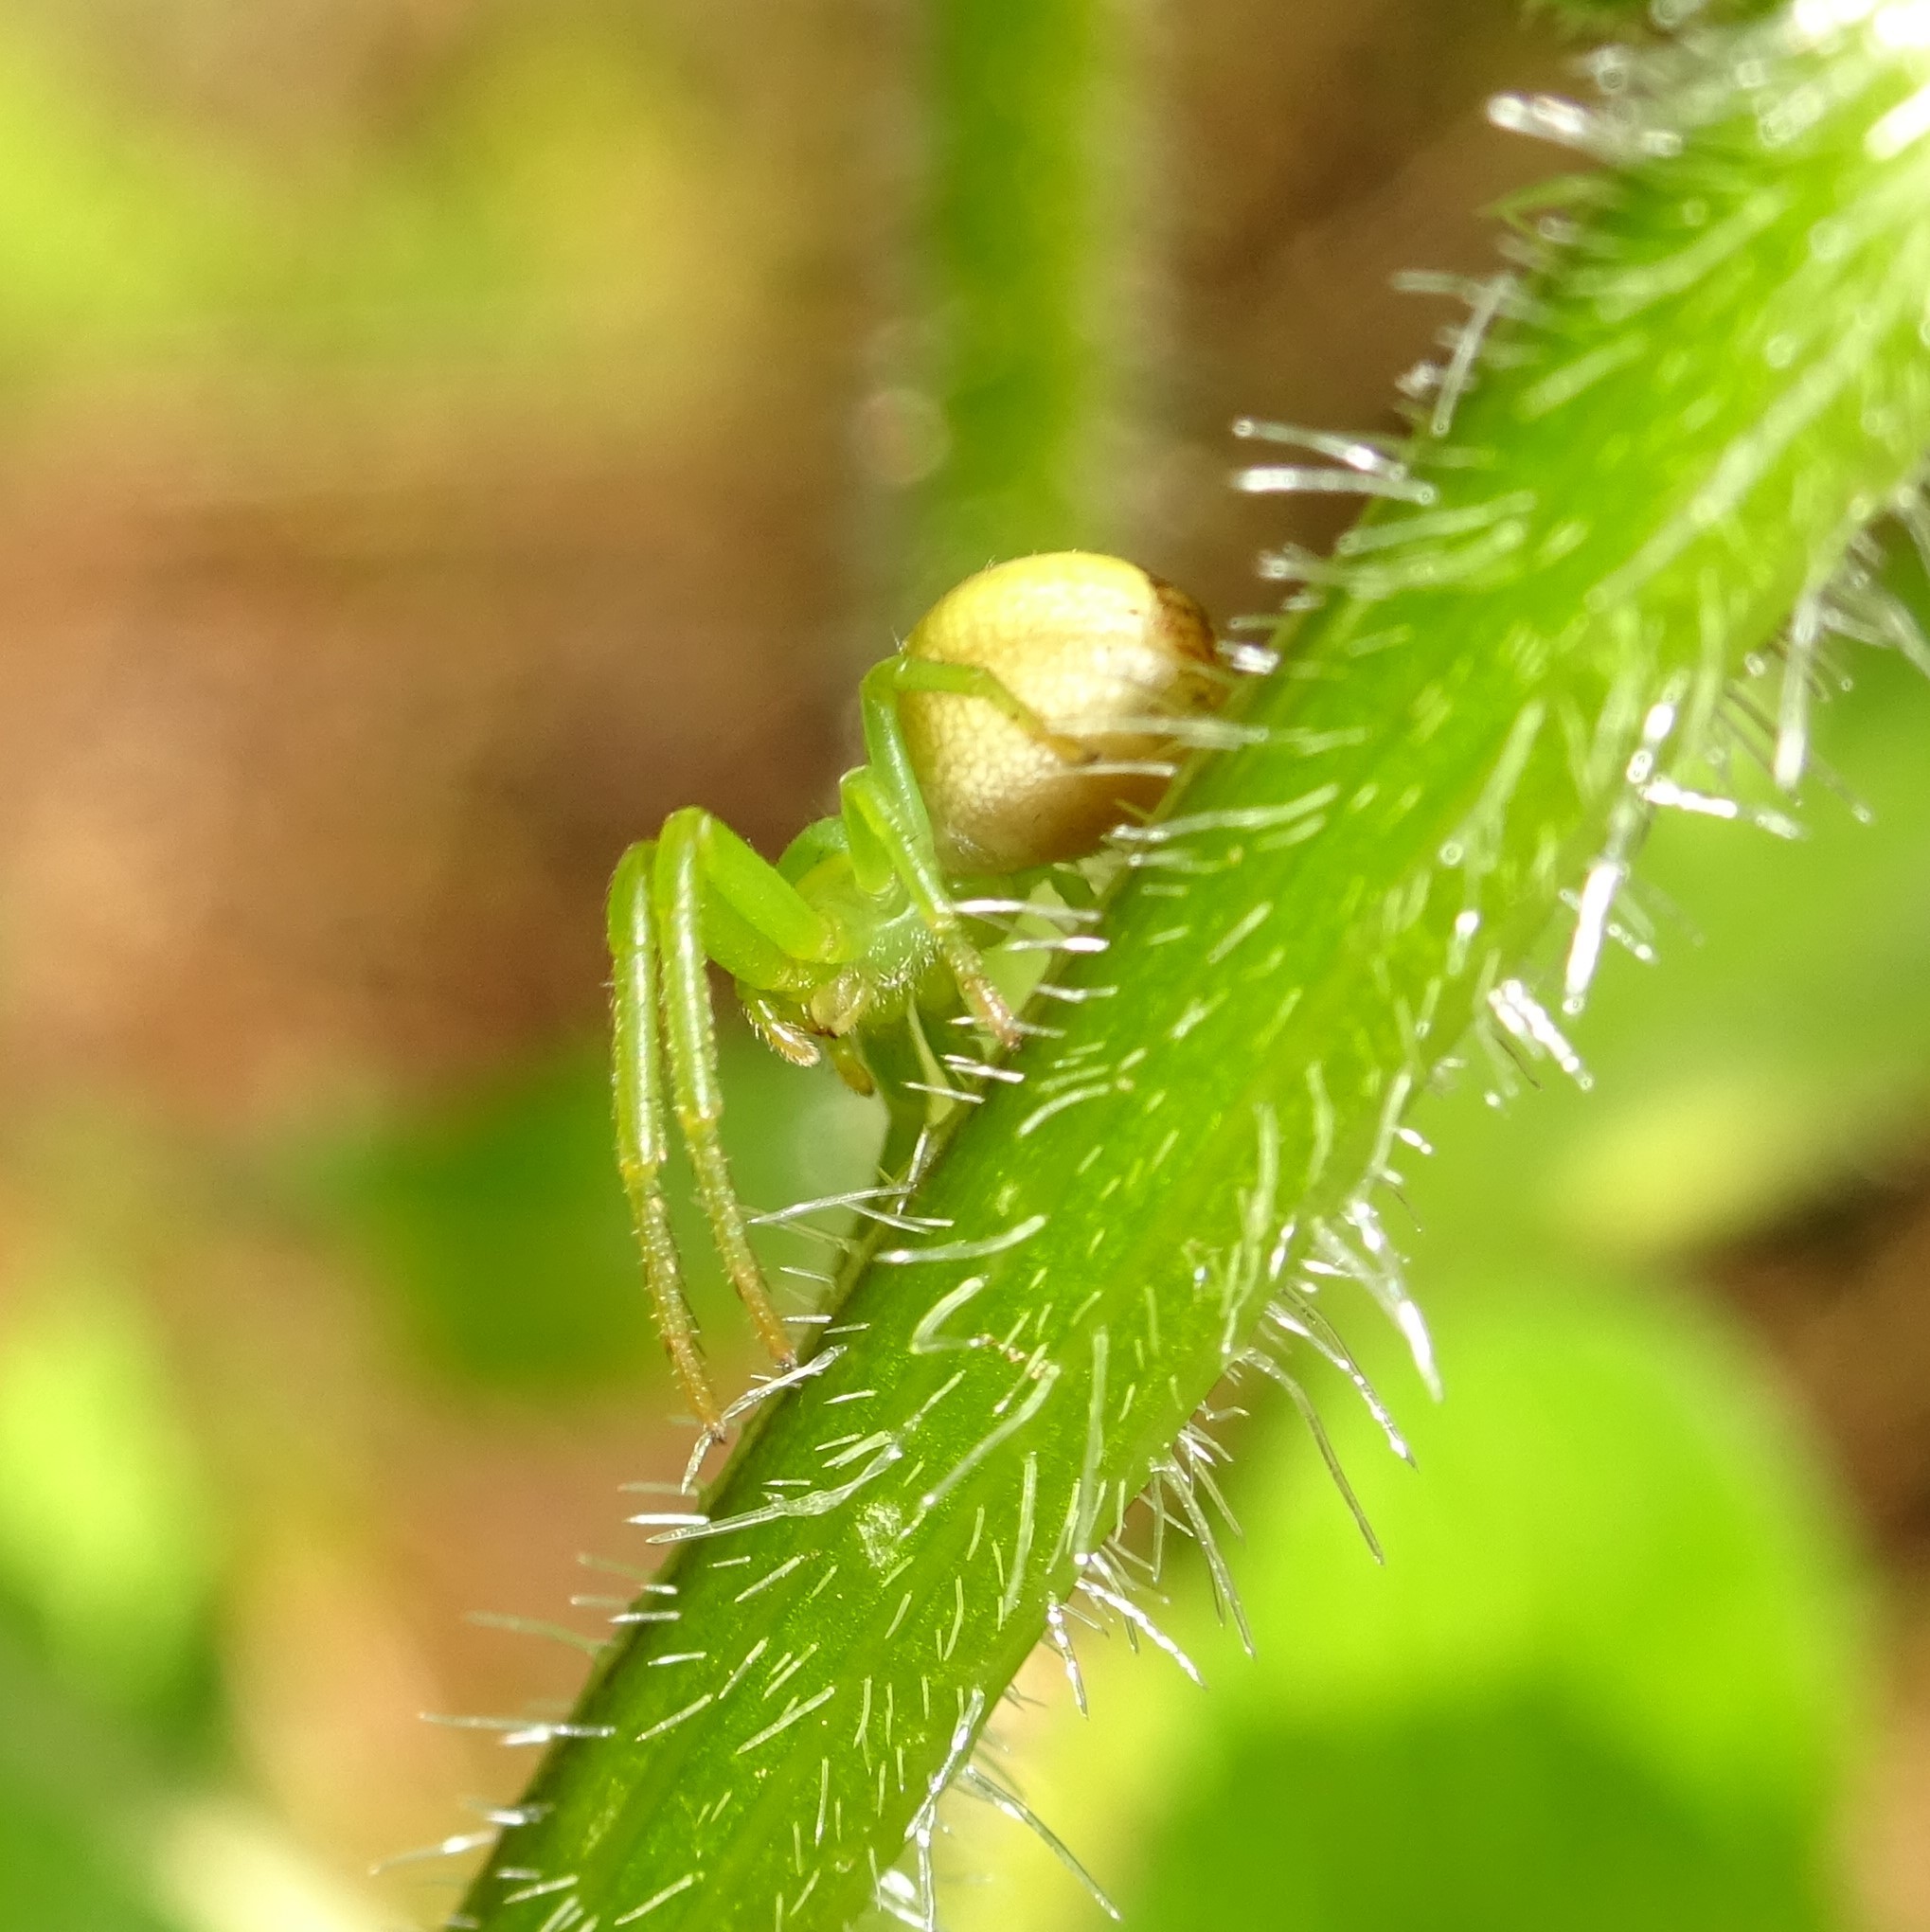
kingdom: Animalia
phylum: Arthropoda
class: Arachnida
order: Araneae
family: Thomisidae
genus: Diaea
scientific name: Diaea dorsata
